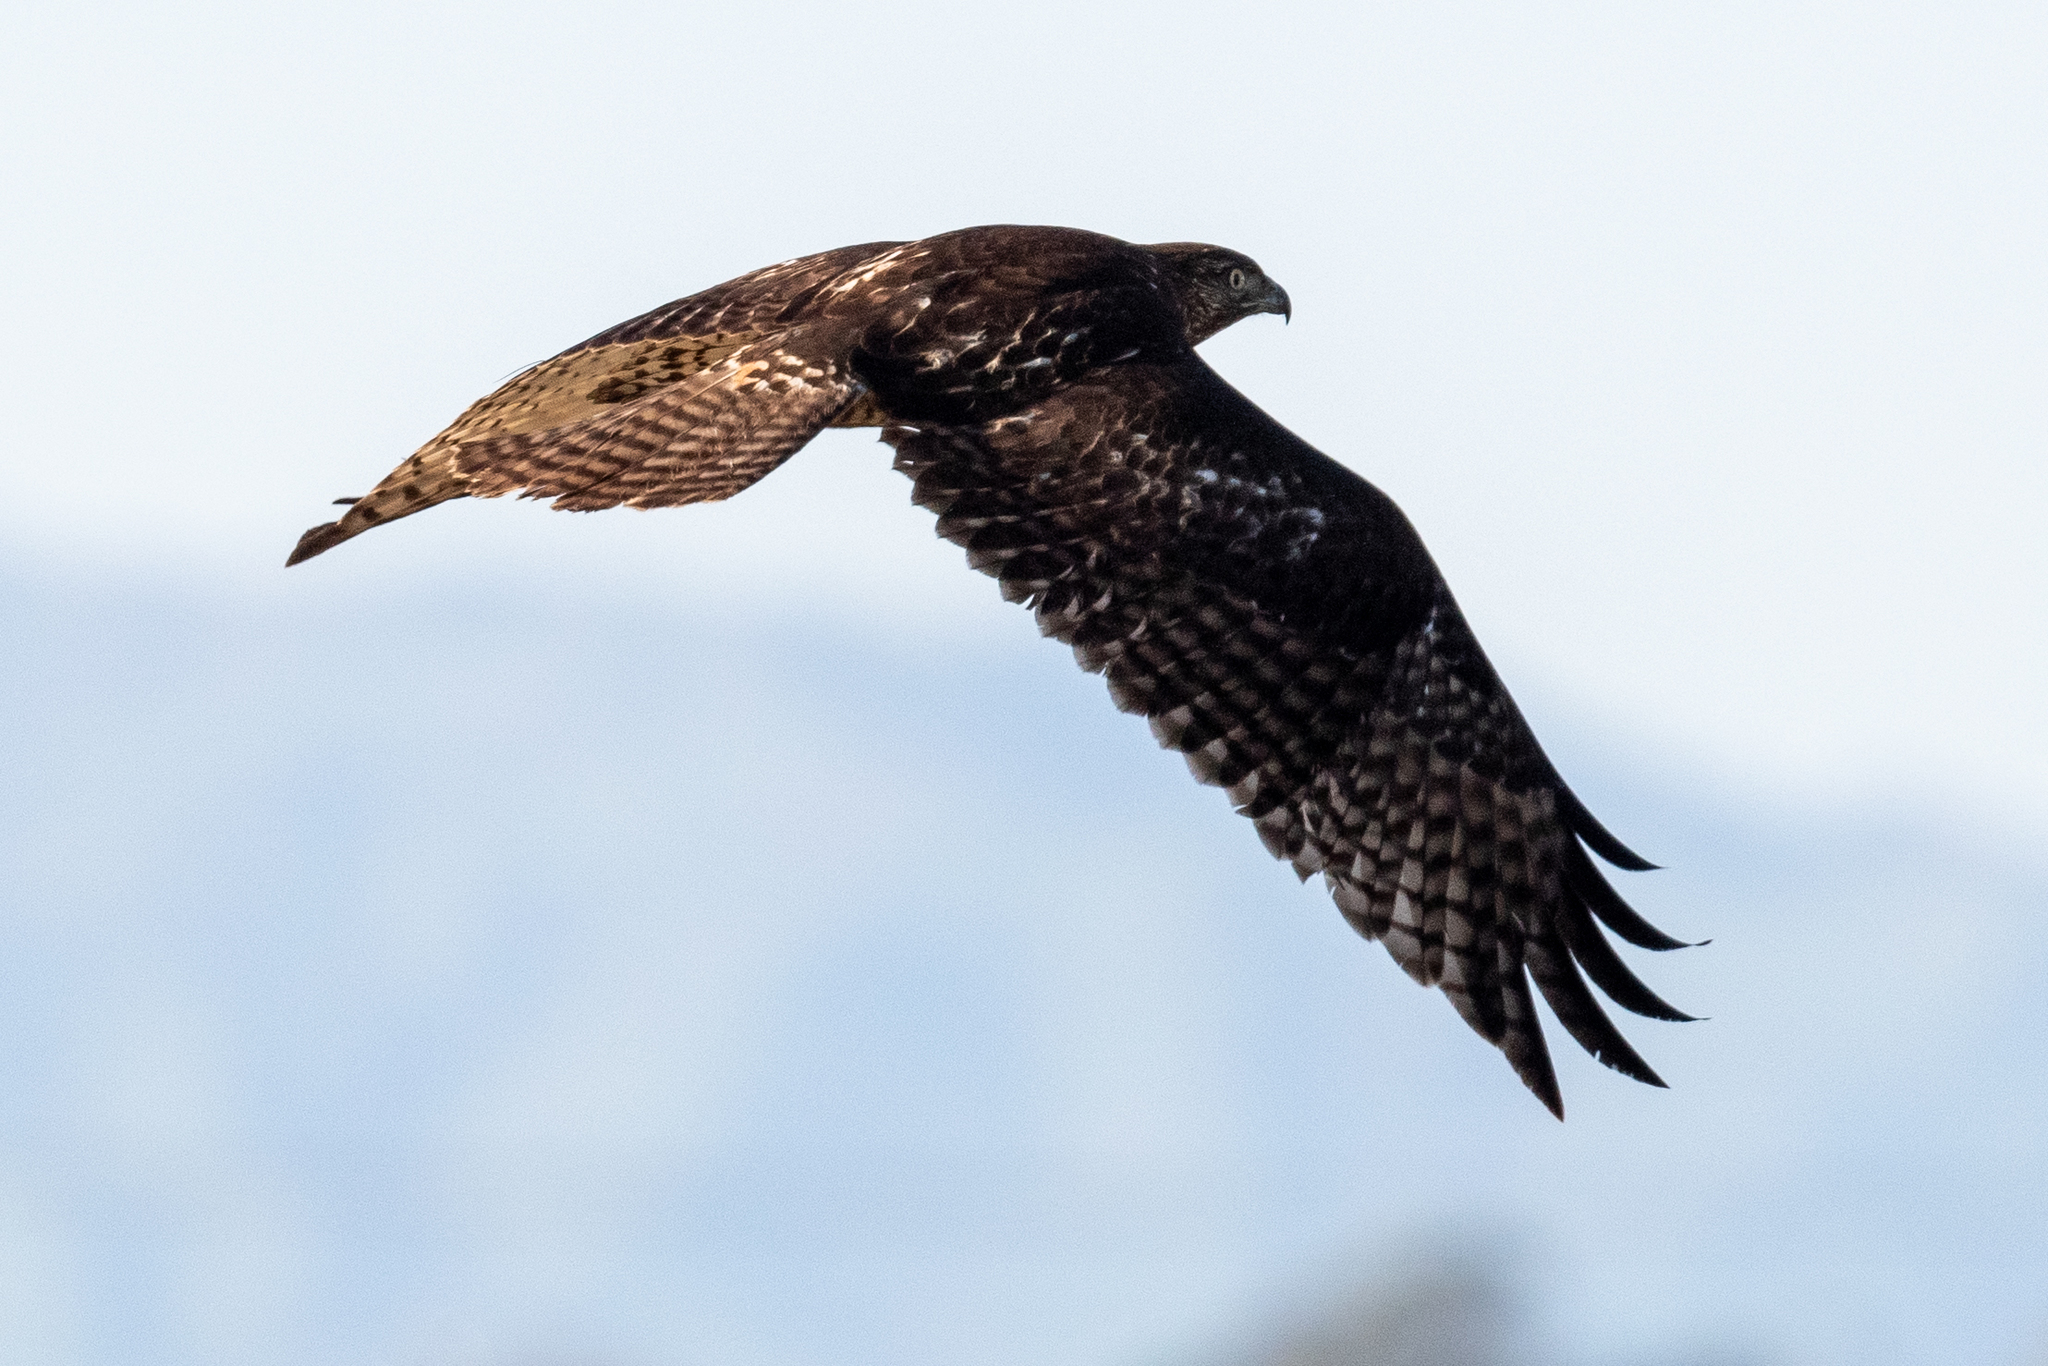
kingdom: Animalia
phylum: Chordata
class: Aves
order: Accipitriformes
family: Accipitridae
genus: Buteo
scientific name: Buteo jamaicensis
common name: Red-tailed hawk
